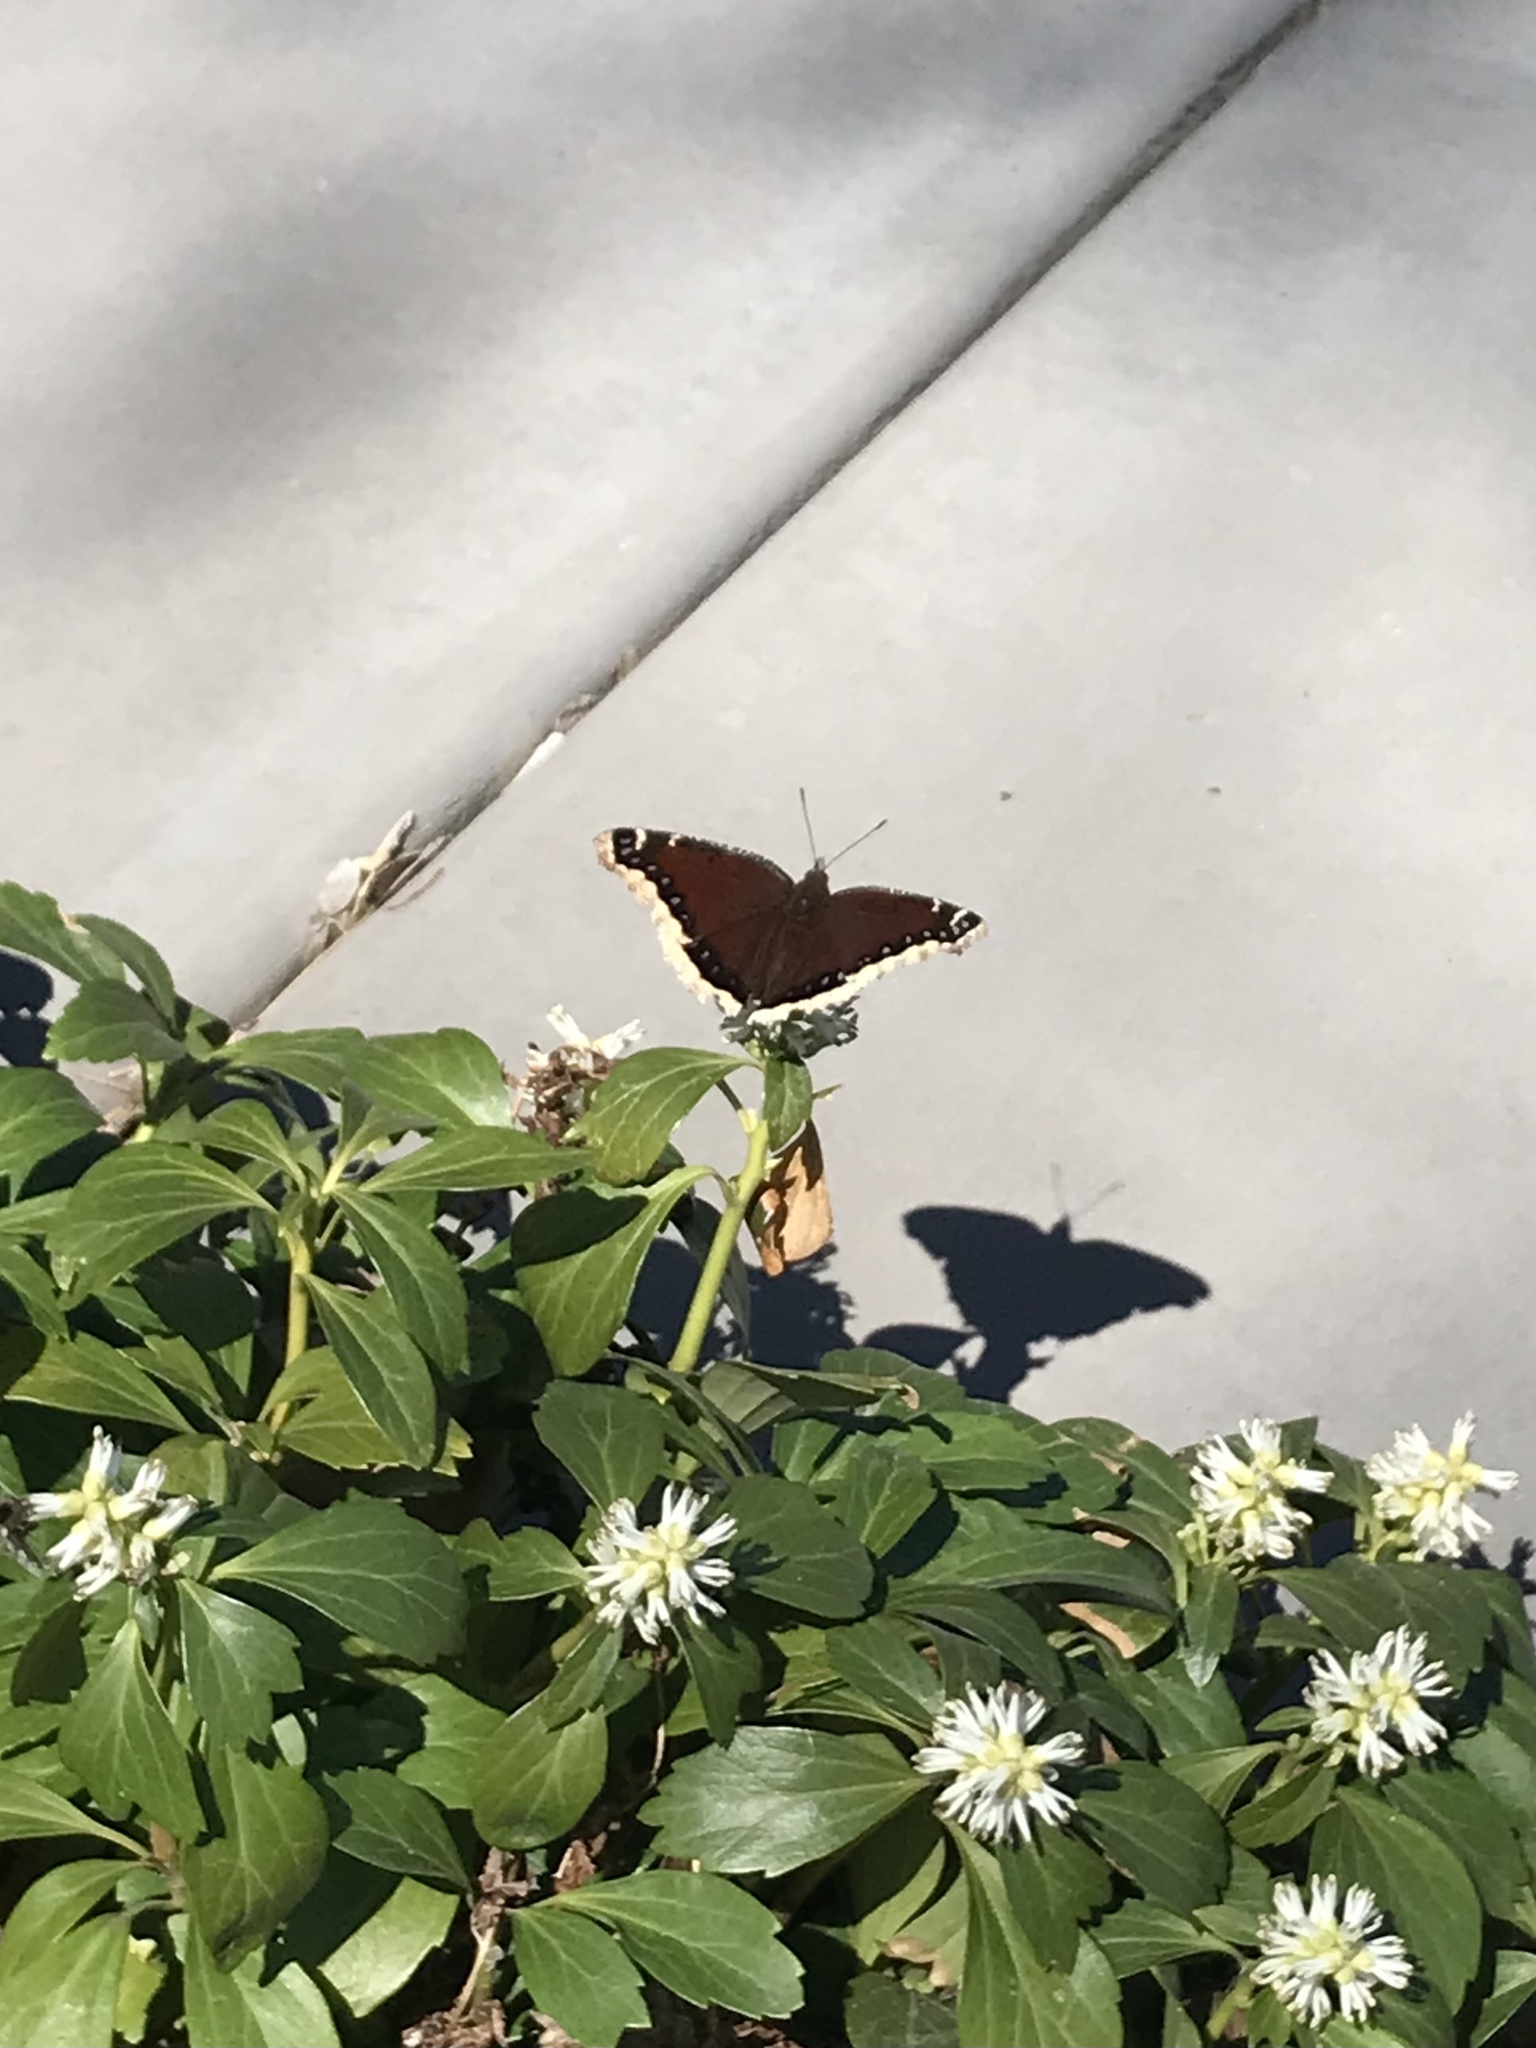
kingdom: Animalia
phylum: Arthropoda
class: Insecta
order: Lepidoptera
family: Nymphalidae
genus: Nymphalis
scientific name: Nymphalis antiopa
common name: Camberwell beauty
